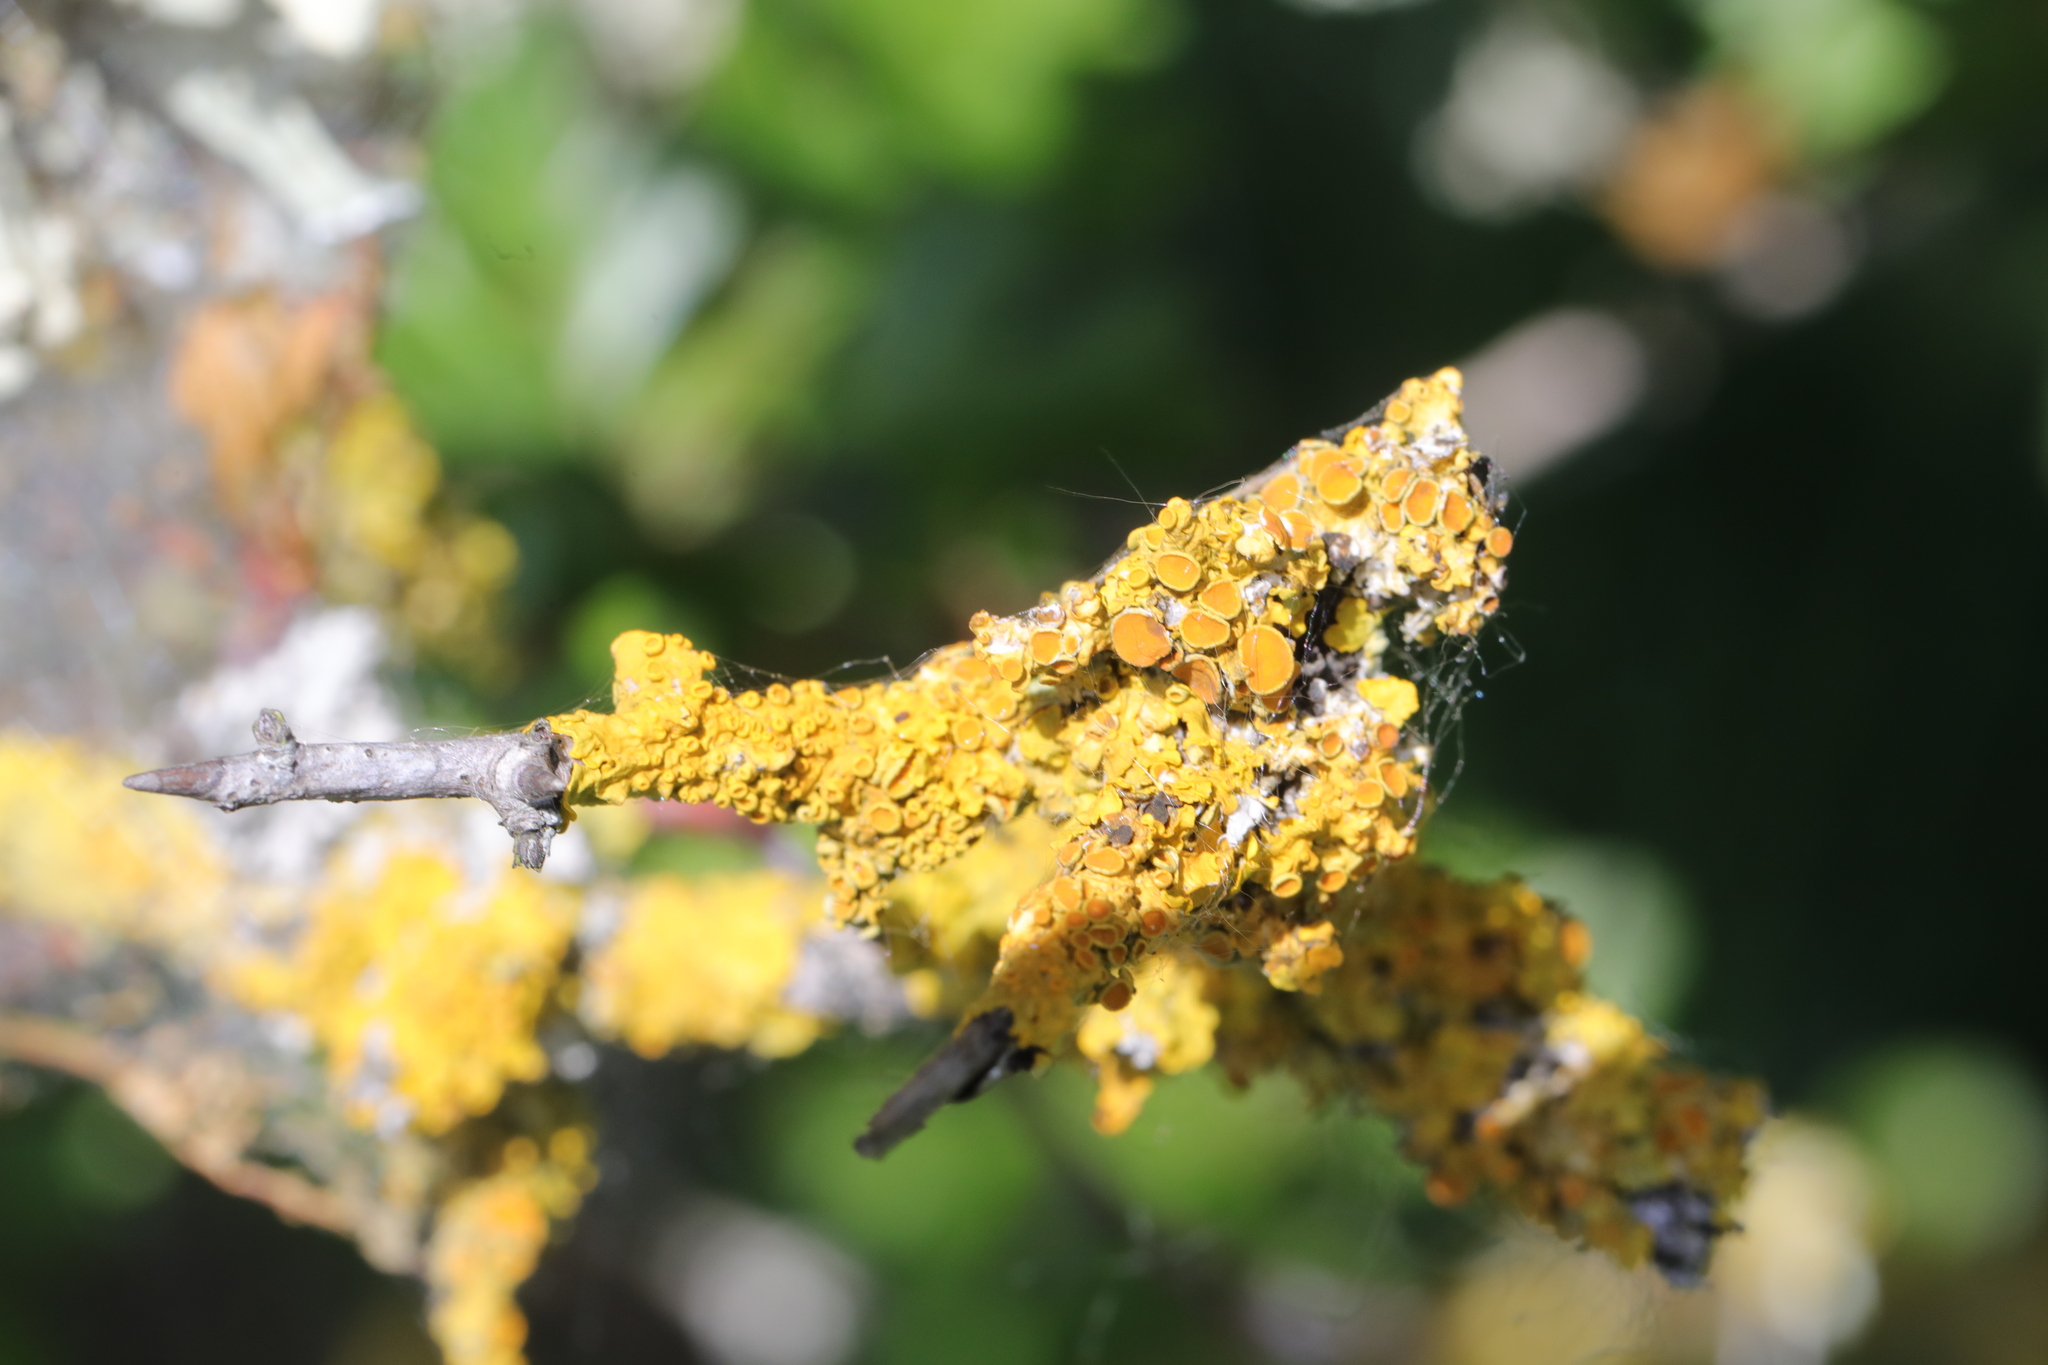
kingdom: Fungi
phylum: Ascomycota
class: Lecanoromycetes
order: Teloschistales
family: Teloschistaceae
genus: Xanthoria
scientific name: Xanthoria parietina
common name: Common orange lichen
